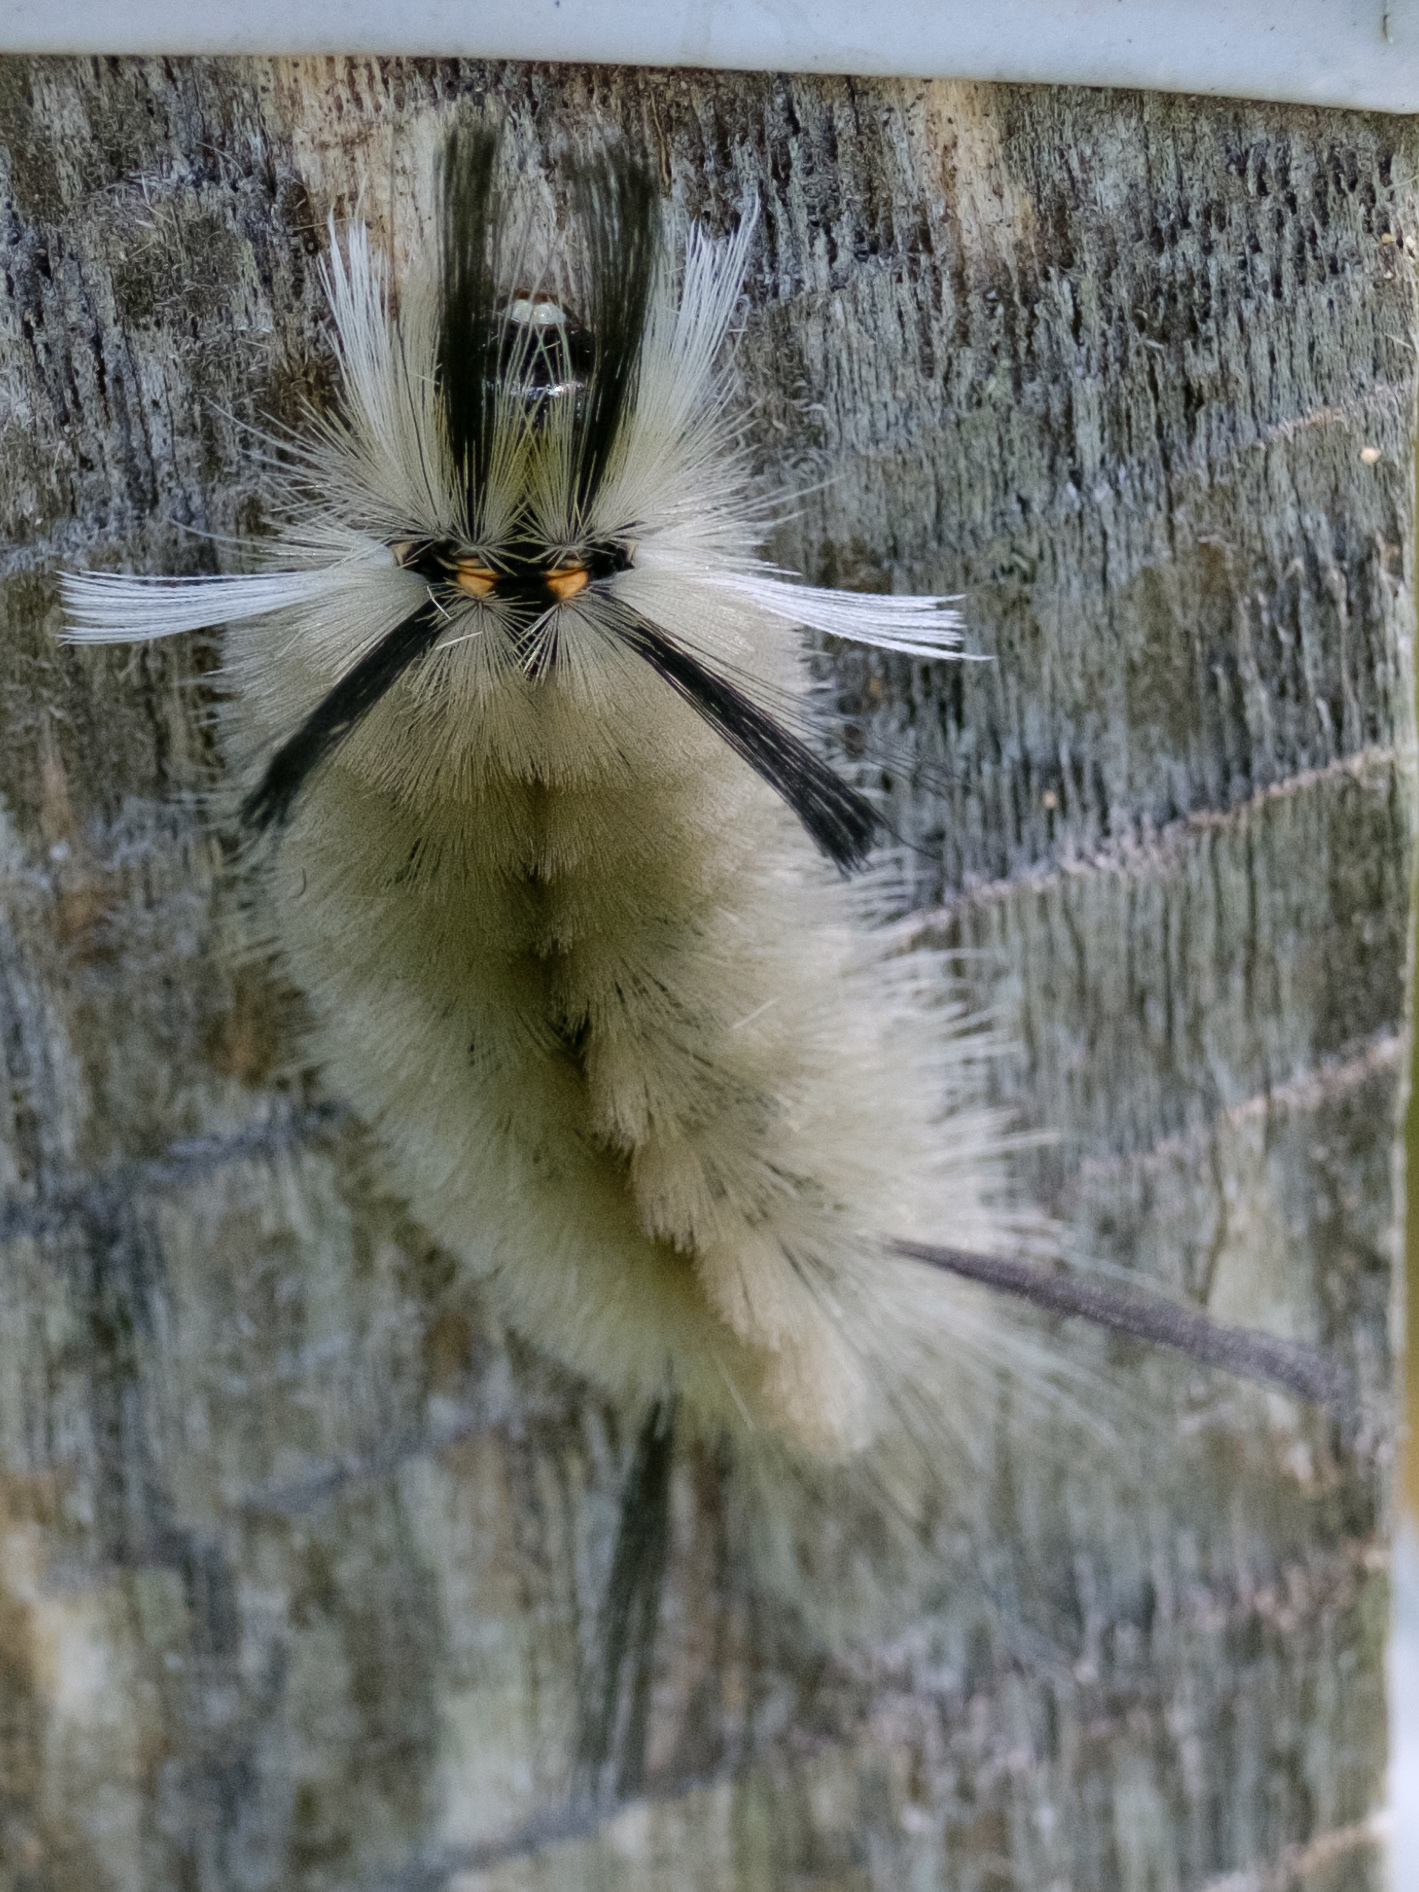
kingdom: Animalia
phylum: Arthropoda
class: Insecta
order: Lepidoptera
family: Erebidae
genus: Halysidota
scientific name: Halysidota tessellaris
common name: Banded tussock moth
